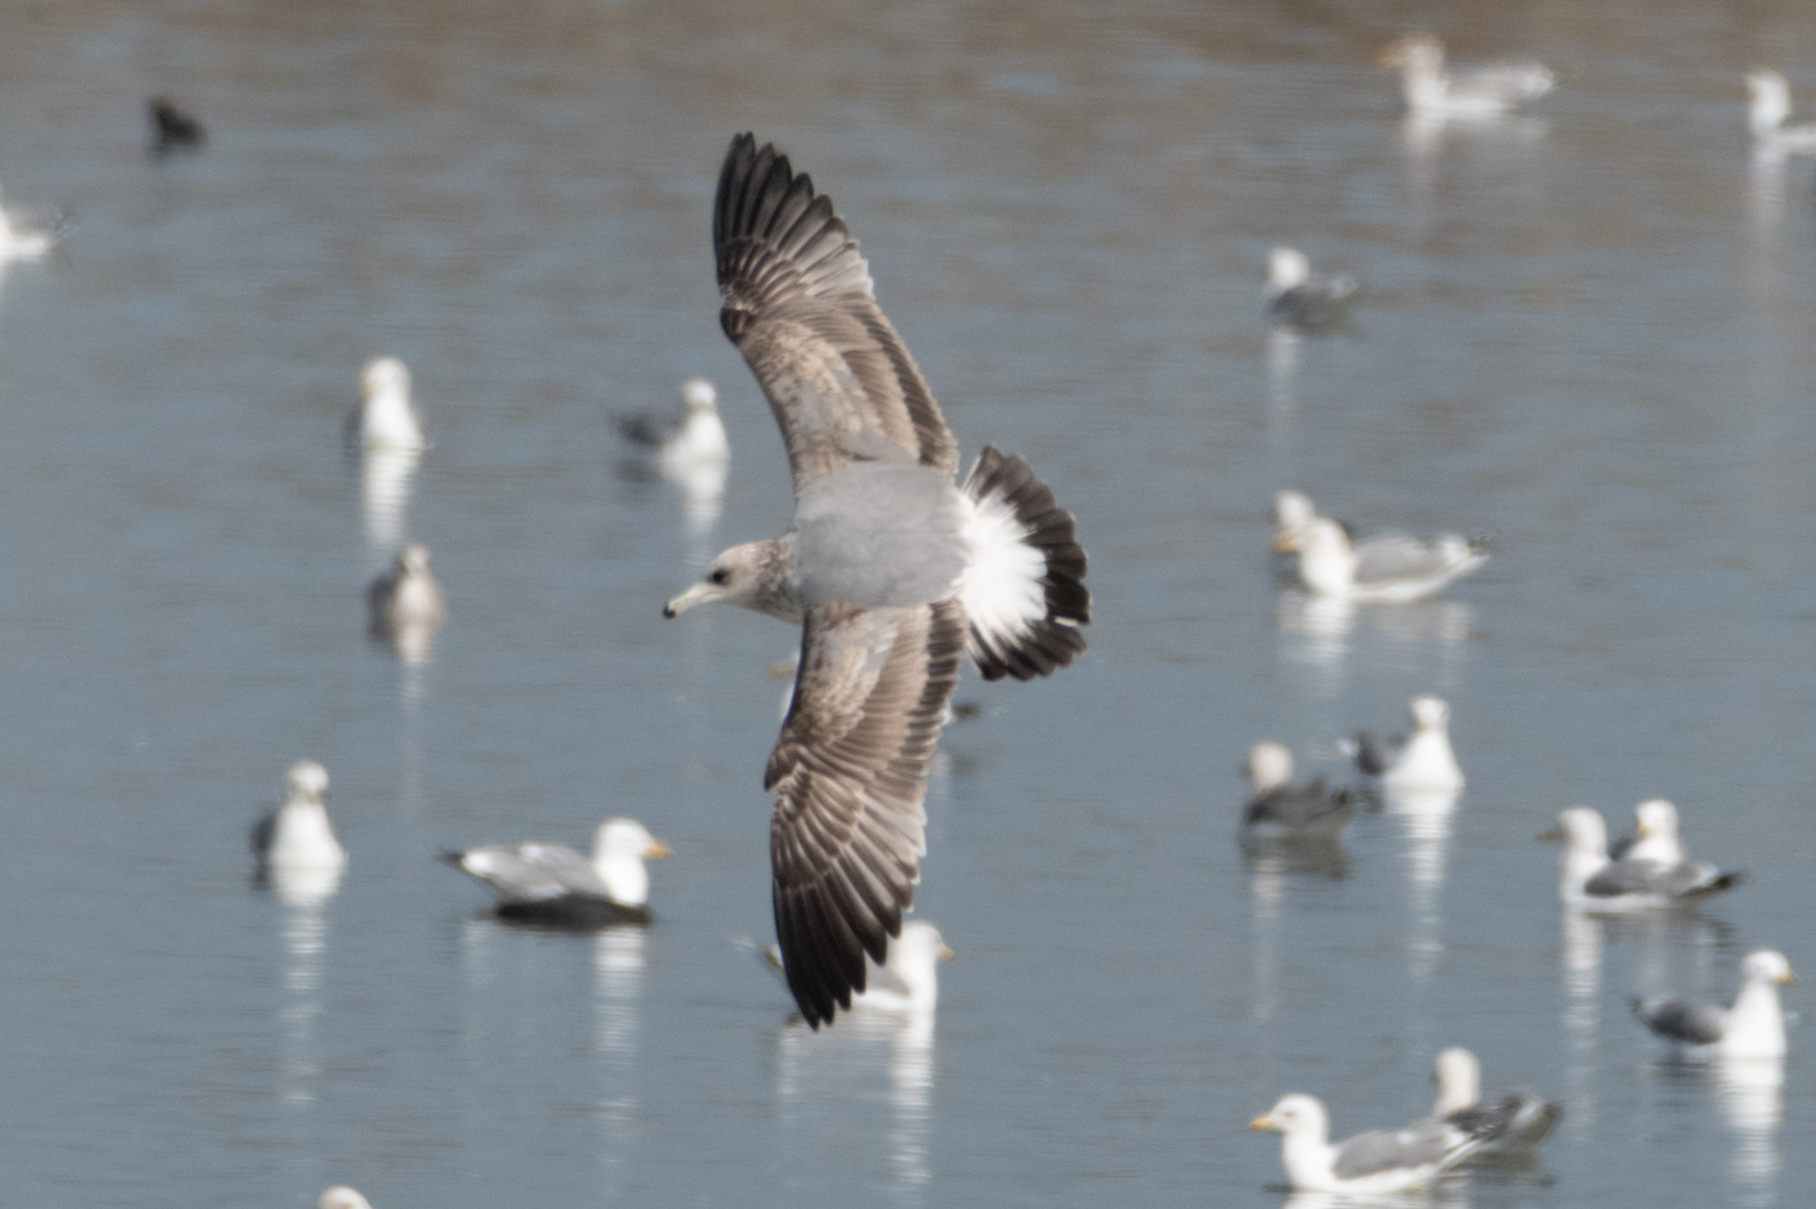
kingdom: Animalia
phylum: Chordata
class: Aves
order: Charadriiformes
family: Laridae
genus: Larus
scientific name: Larus californicus
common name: California gull
